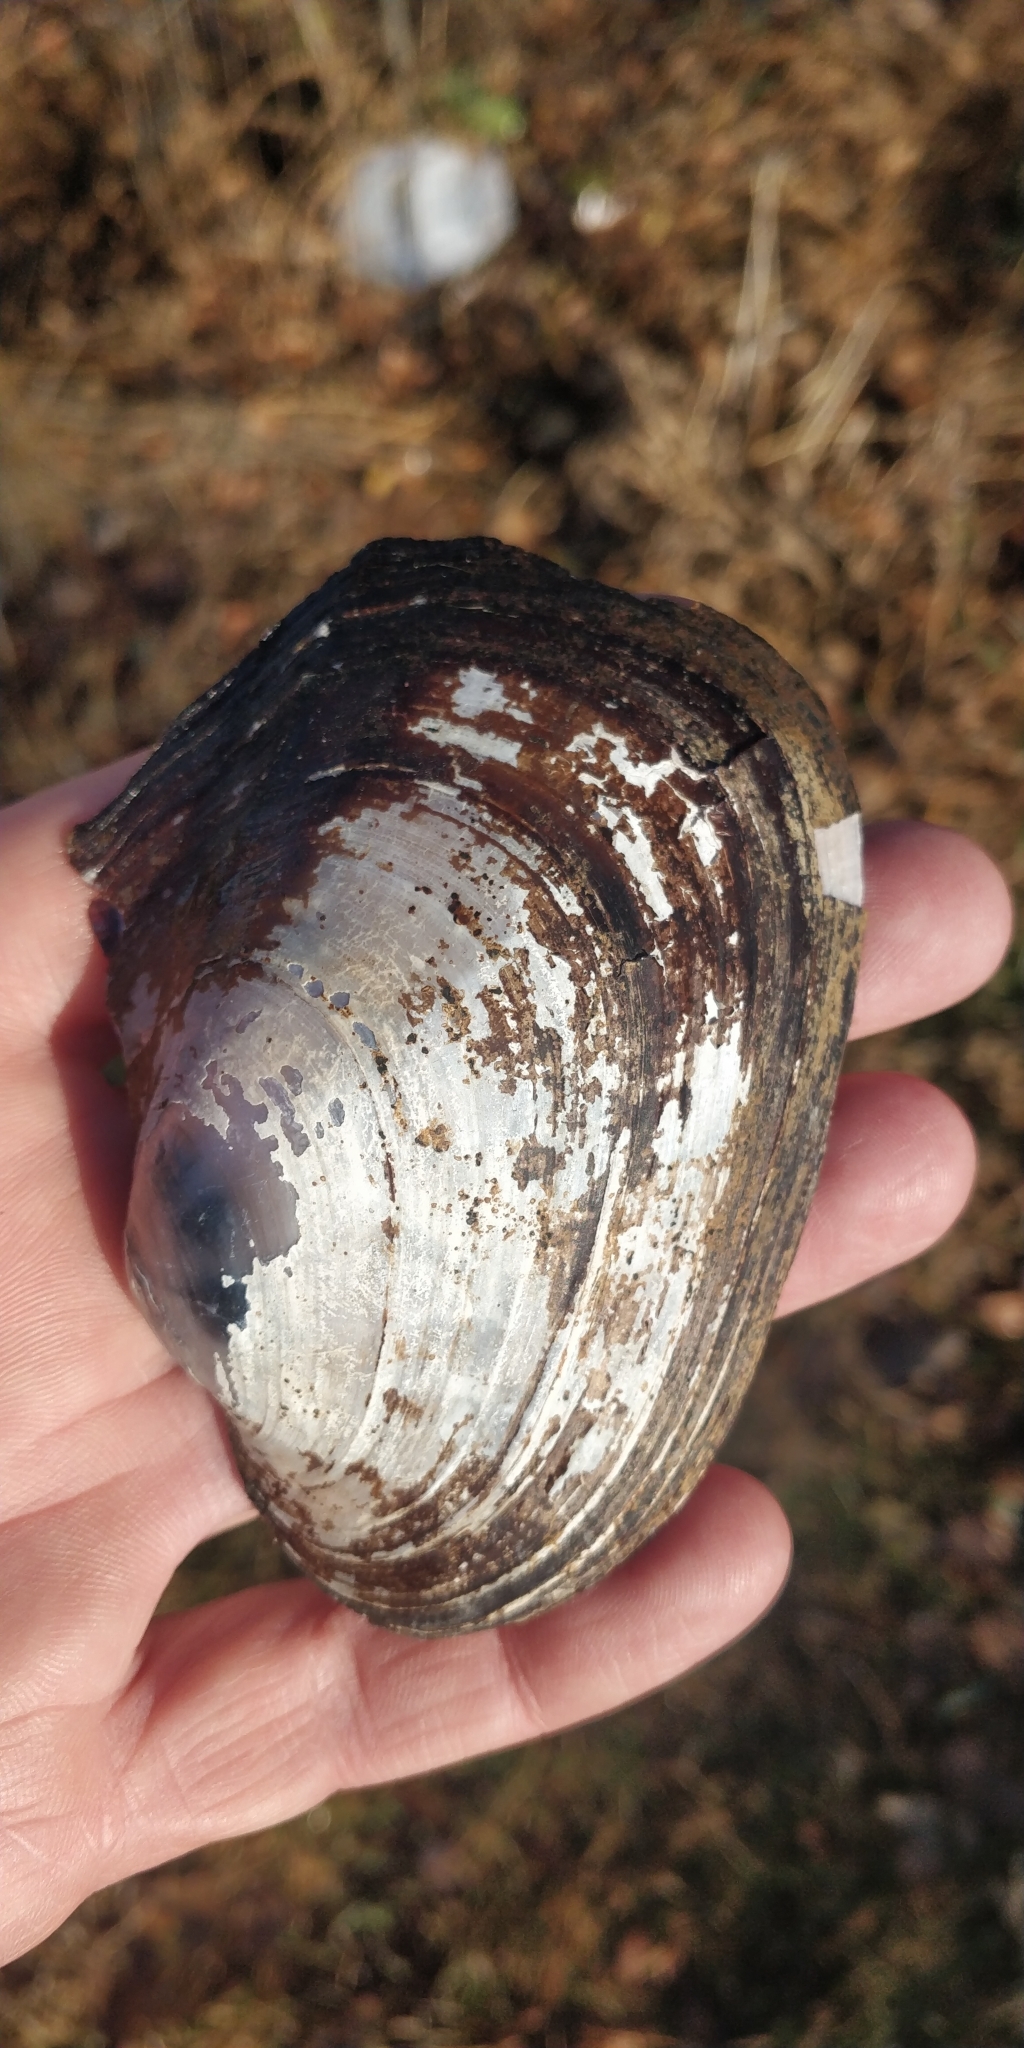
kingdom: Animalia
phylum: Mollusca
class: Bivalvia
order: Unionida
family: Unionidae
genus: Potamilus
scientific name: Potamilus alatus
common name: Pink heelsplitter
